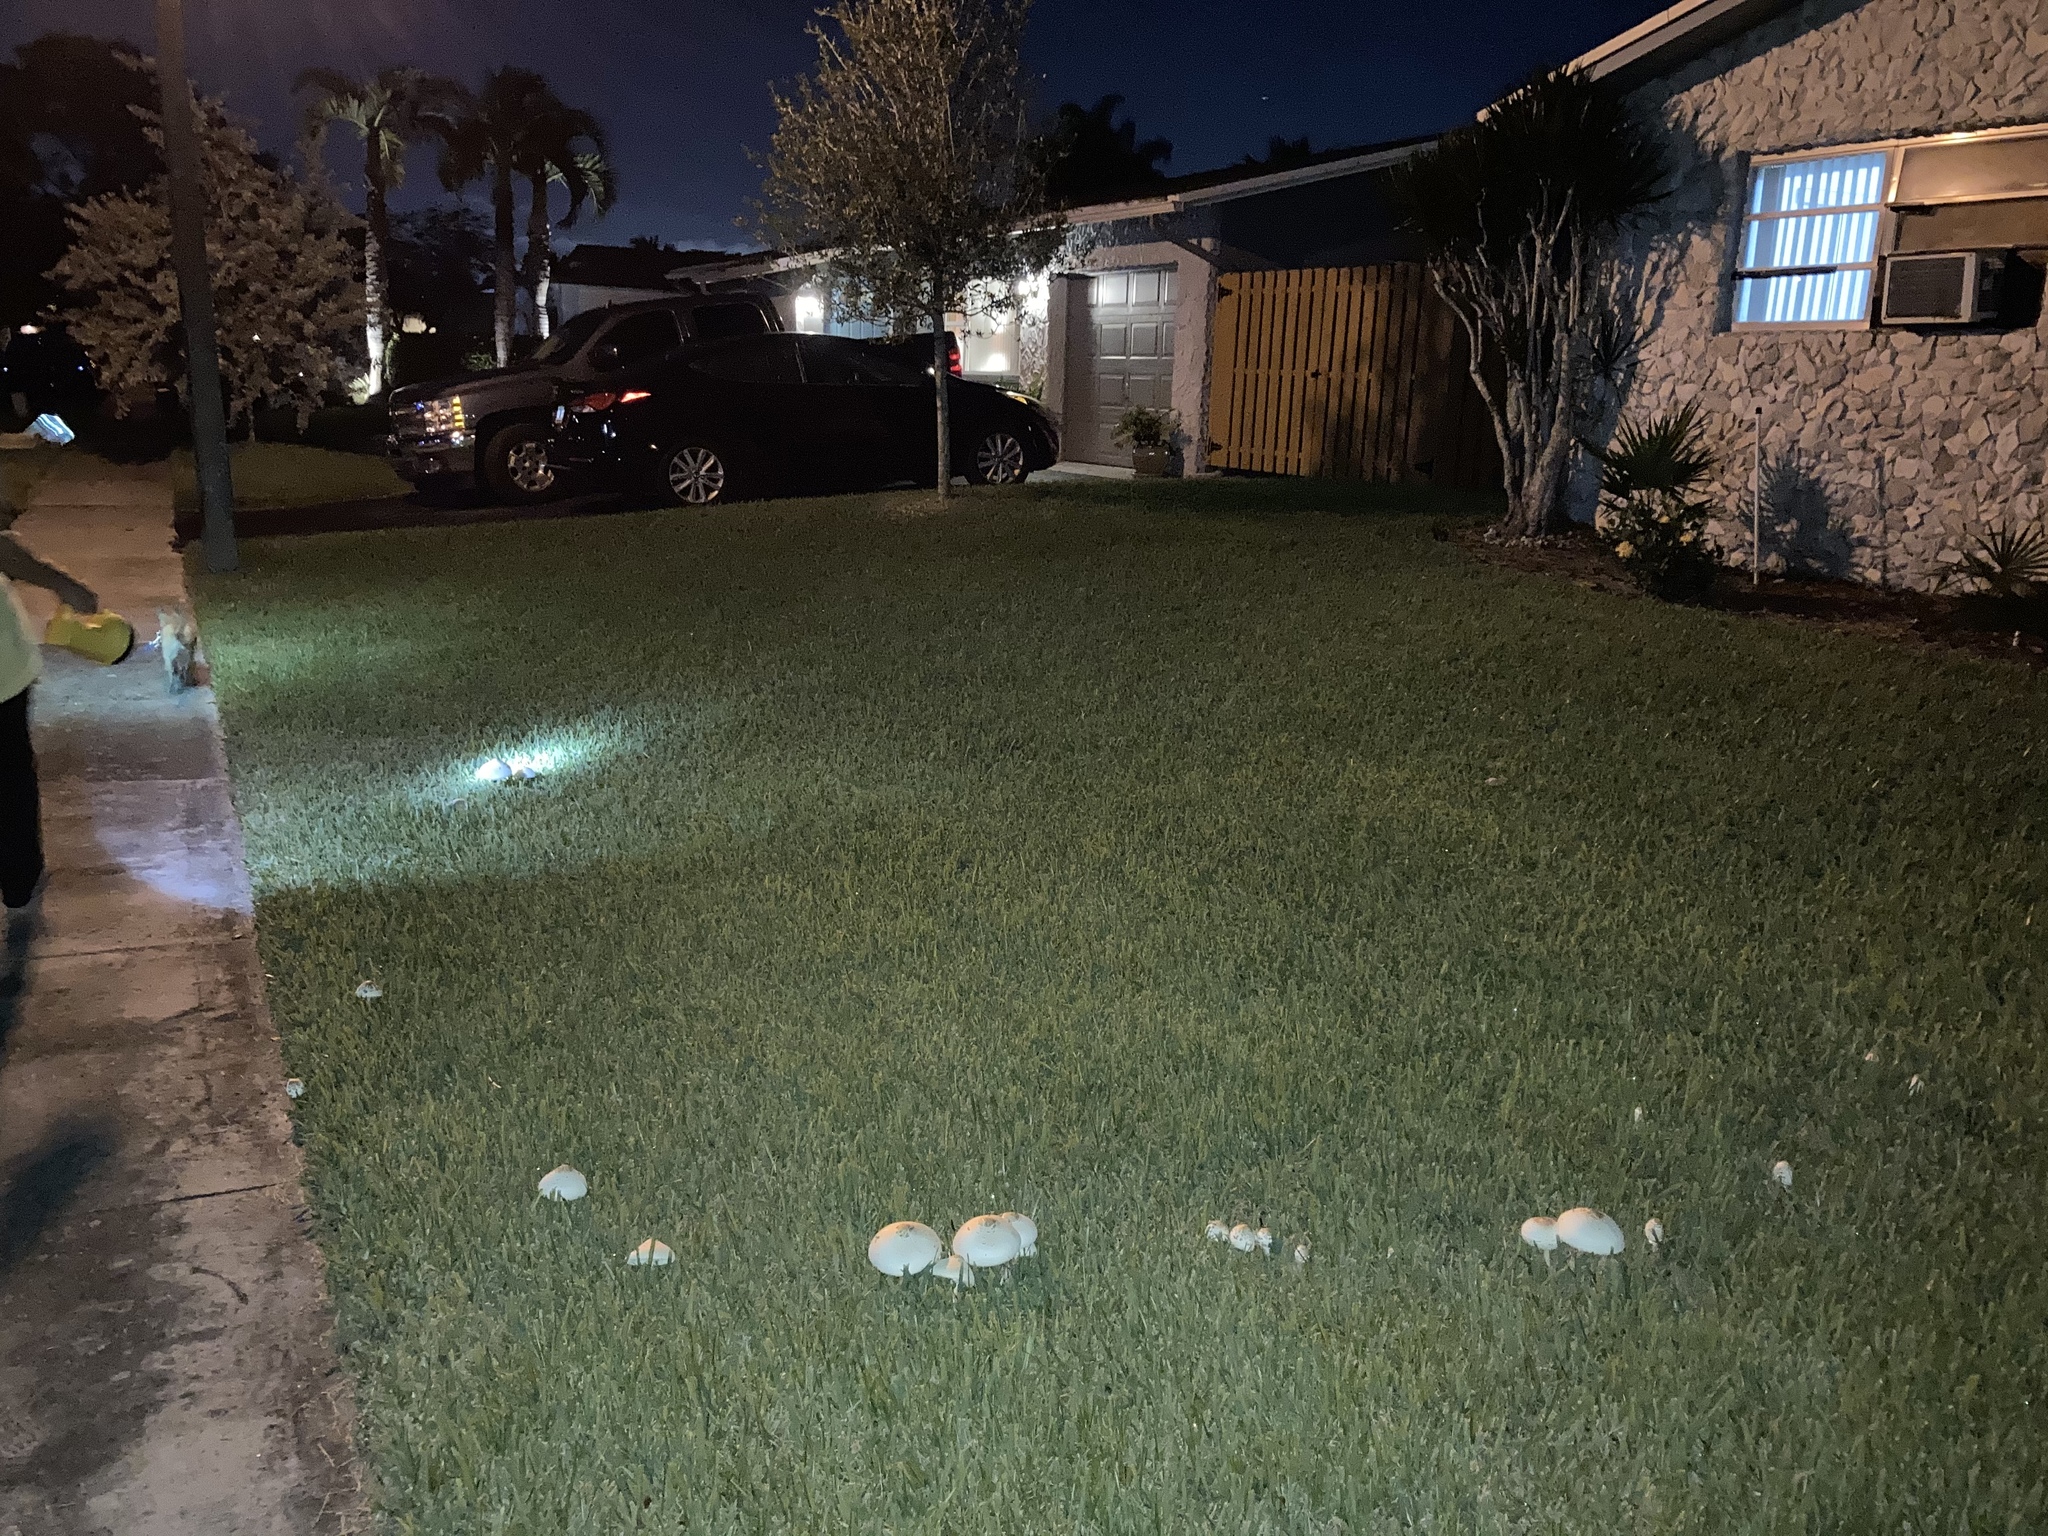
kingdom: Fungi
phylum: Basidiomycota
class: Agaricomycetes
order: Agaricales
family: Agaricaceae
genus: Chlorophyllum
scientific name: Chlorophyllum molybdites
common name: False parasol
